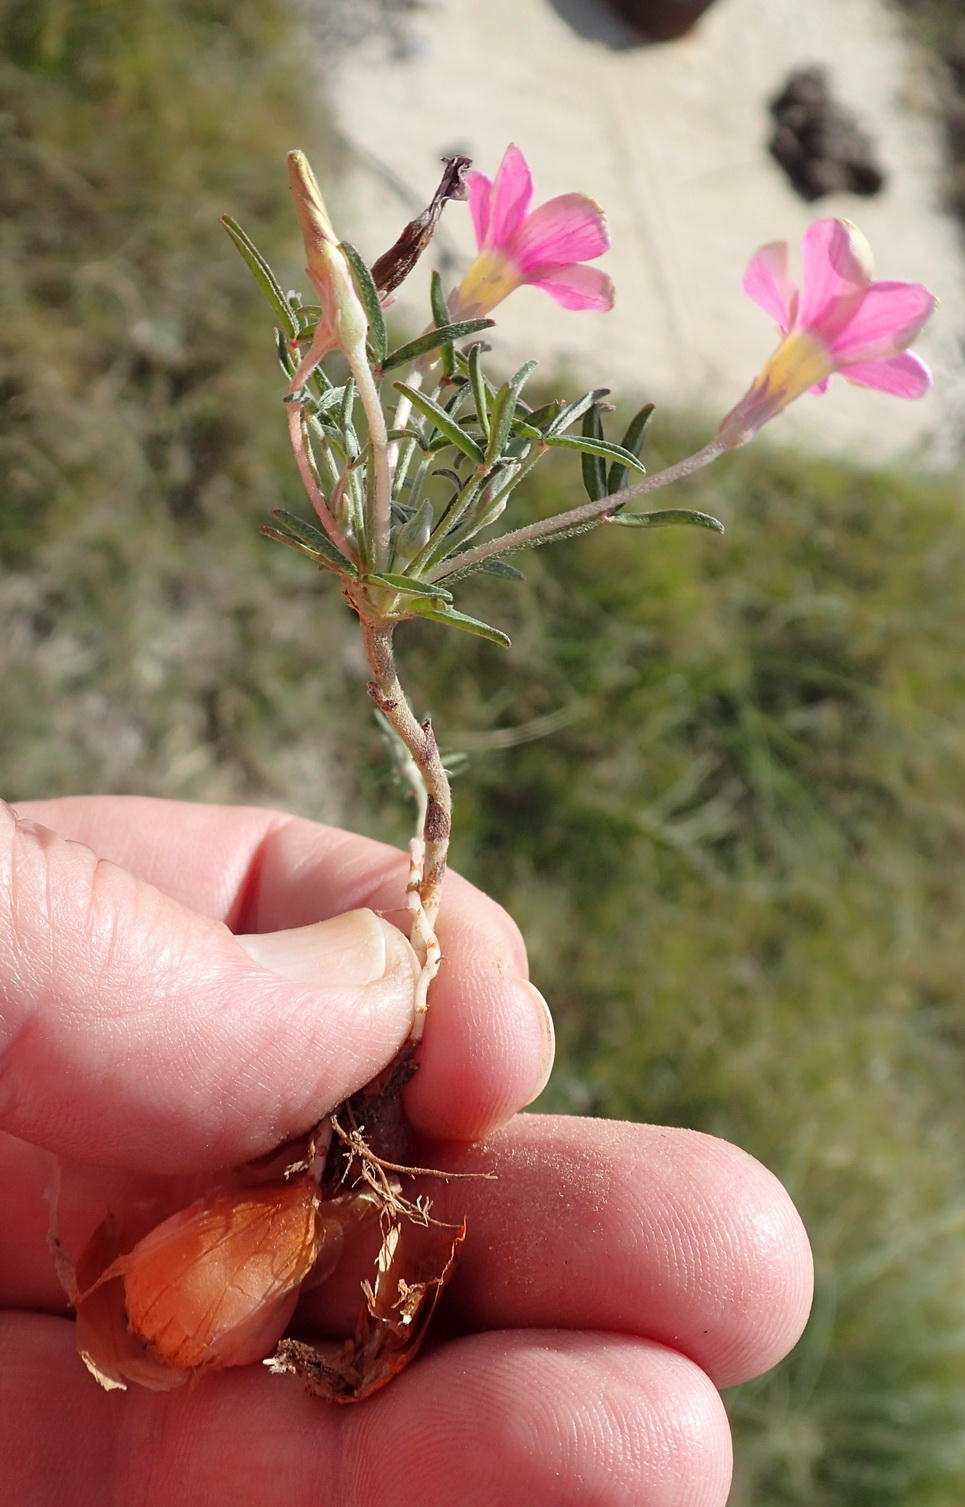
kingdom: Plantae
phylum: Tracheophyta
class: Magnoliopsida
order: Oxalidales
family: Oxalidaceae
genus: Oxalis
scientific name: Oxalis ciliaris
